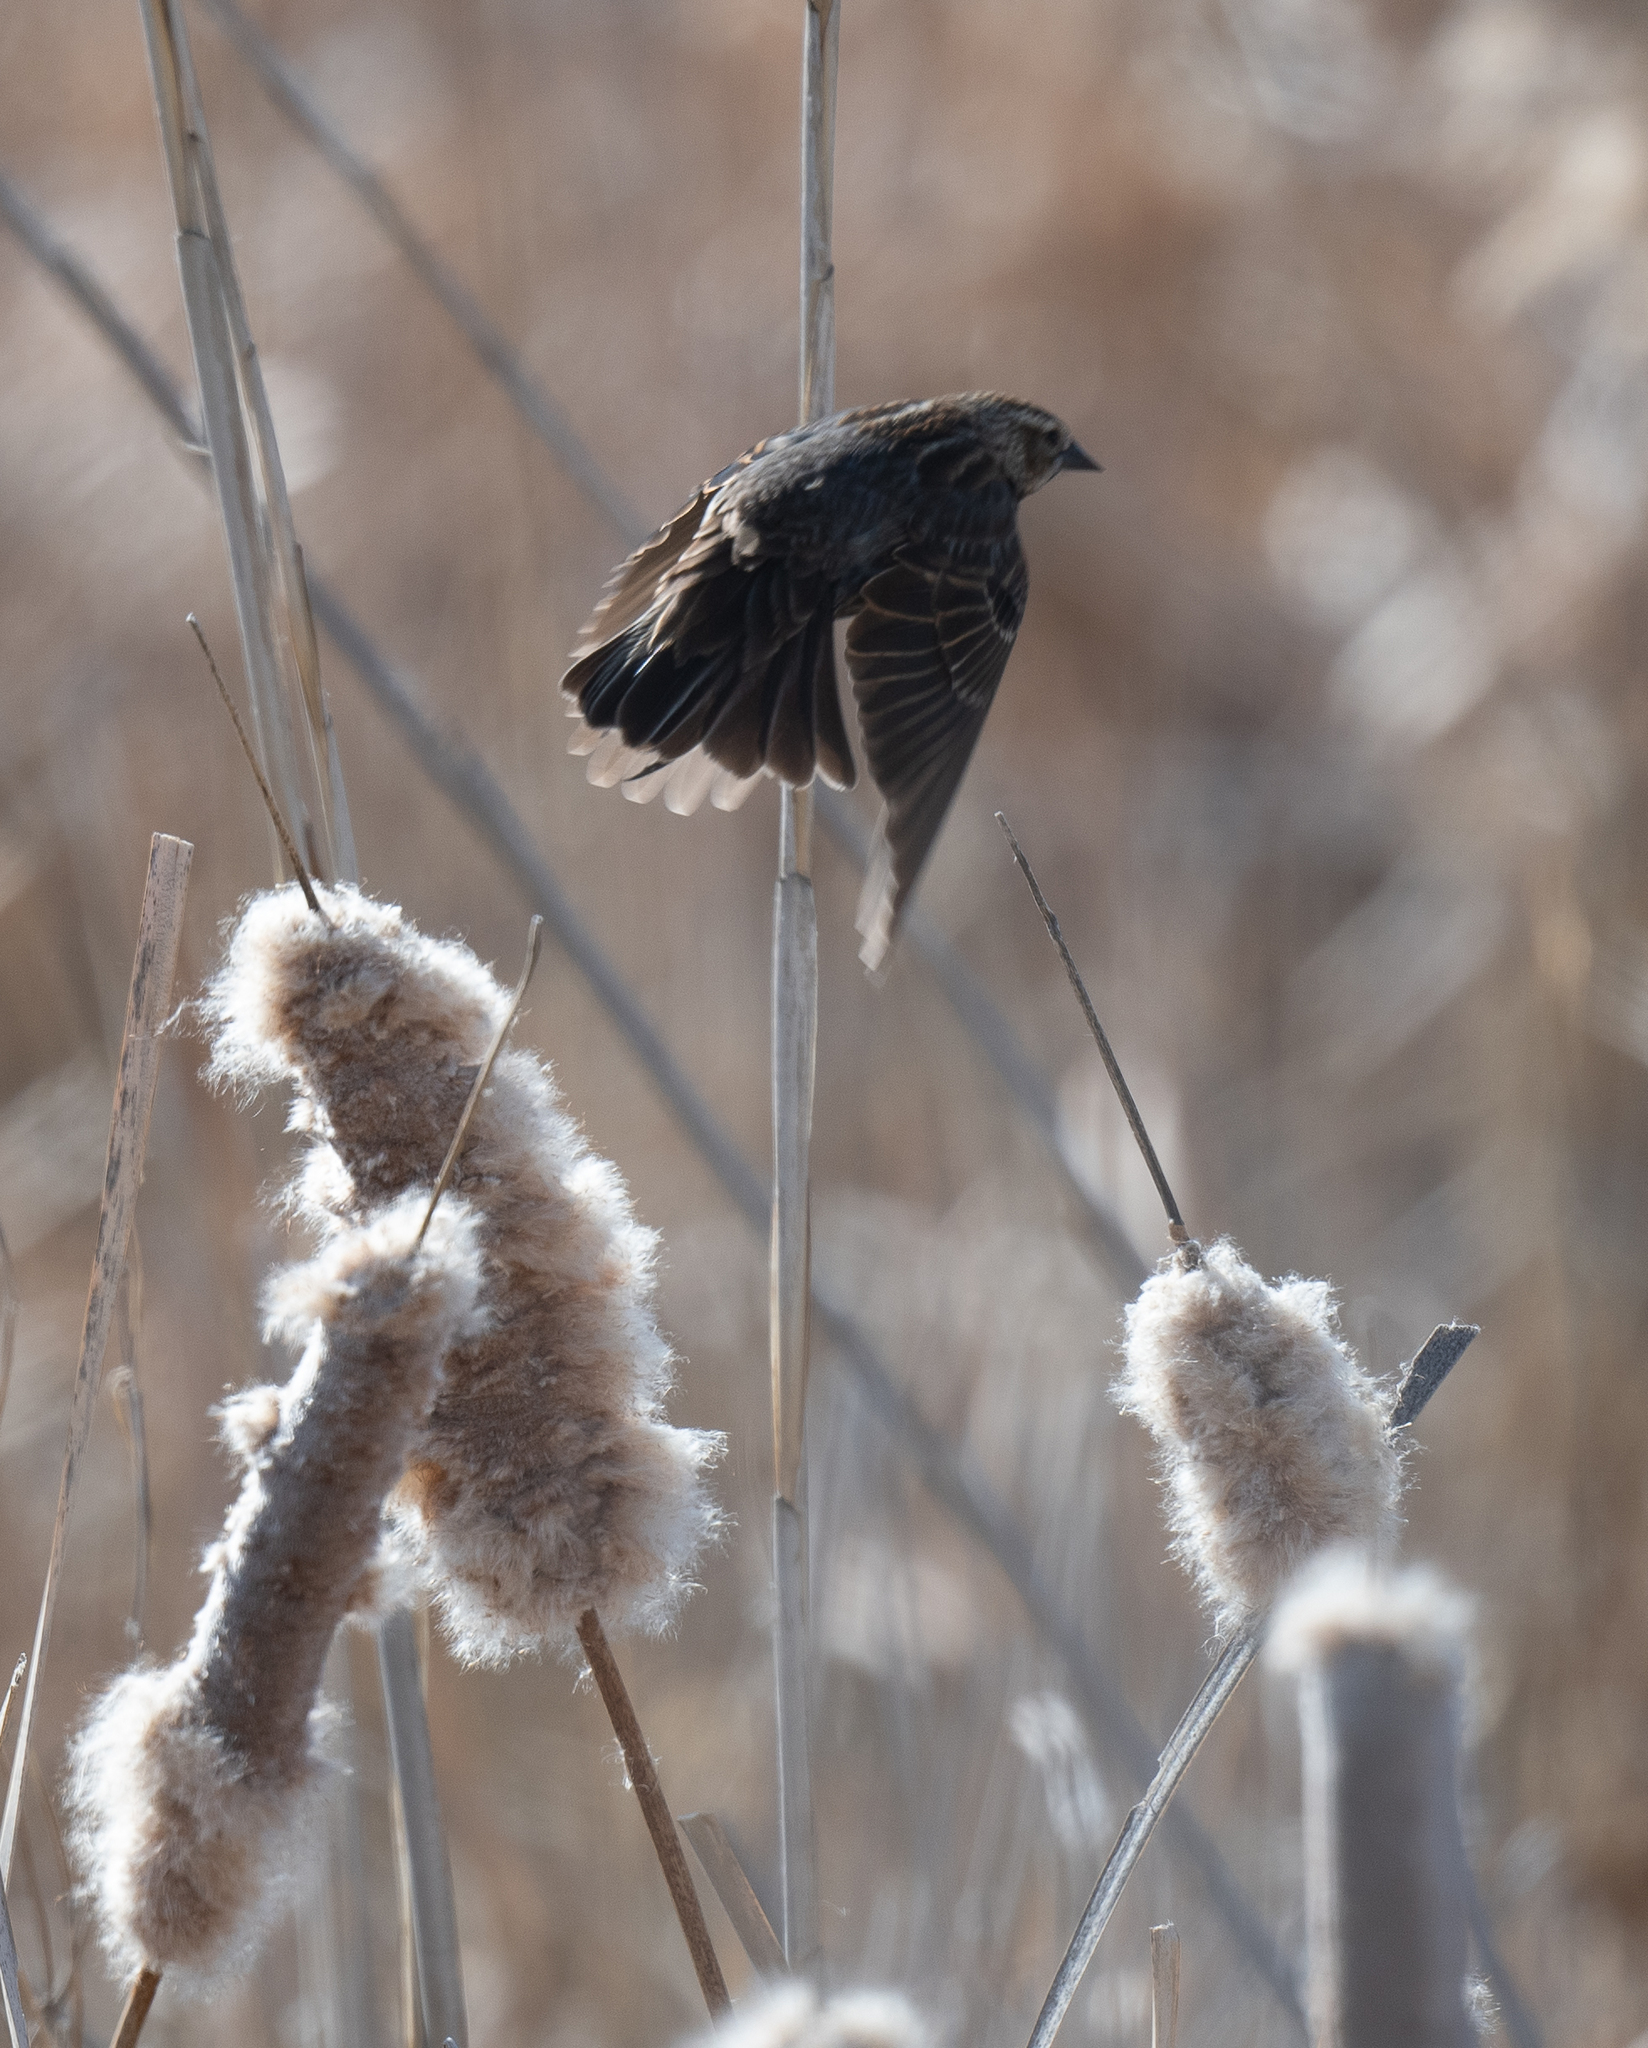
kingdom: Animalia
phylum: Chordata
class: Aves
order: Passeriformes
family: Icteridae
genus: Agelaius
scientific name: Agelaius phoeniceus
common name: Red-winged blackbird
